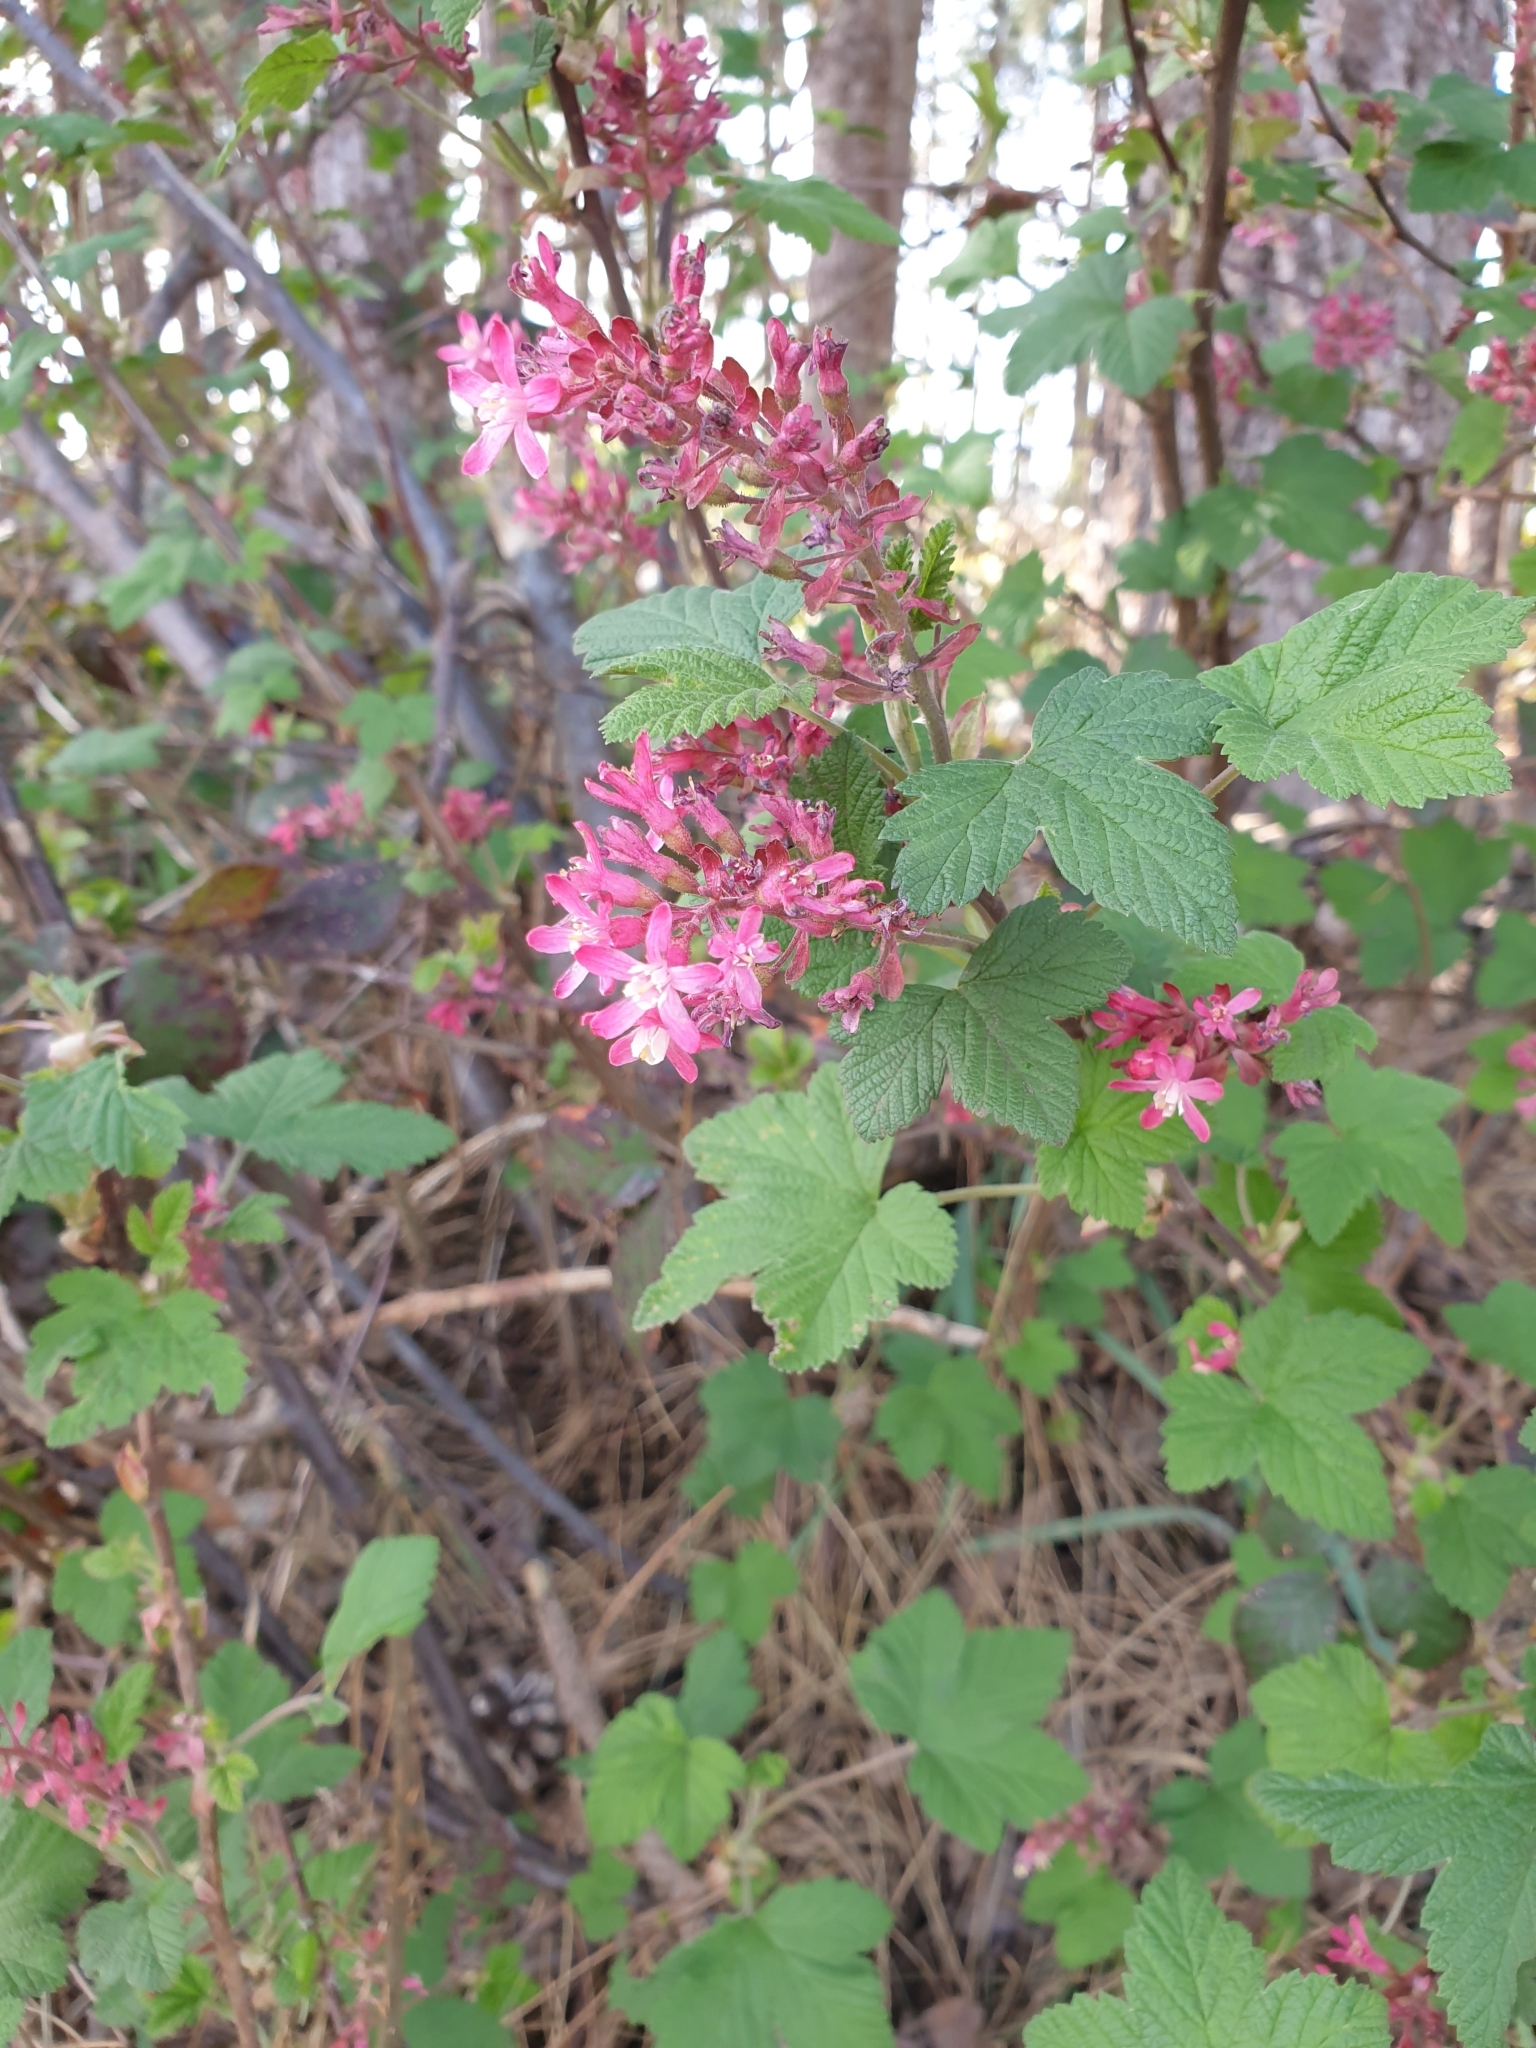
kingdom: Plantae
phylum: Tracheophyta
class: Magnoliopsida
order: Saxifragales
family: Grossulariaceae
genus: Ribes
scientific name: Ribes sanguineum
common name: Flowering currant
